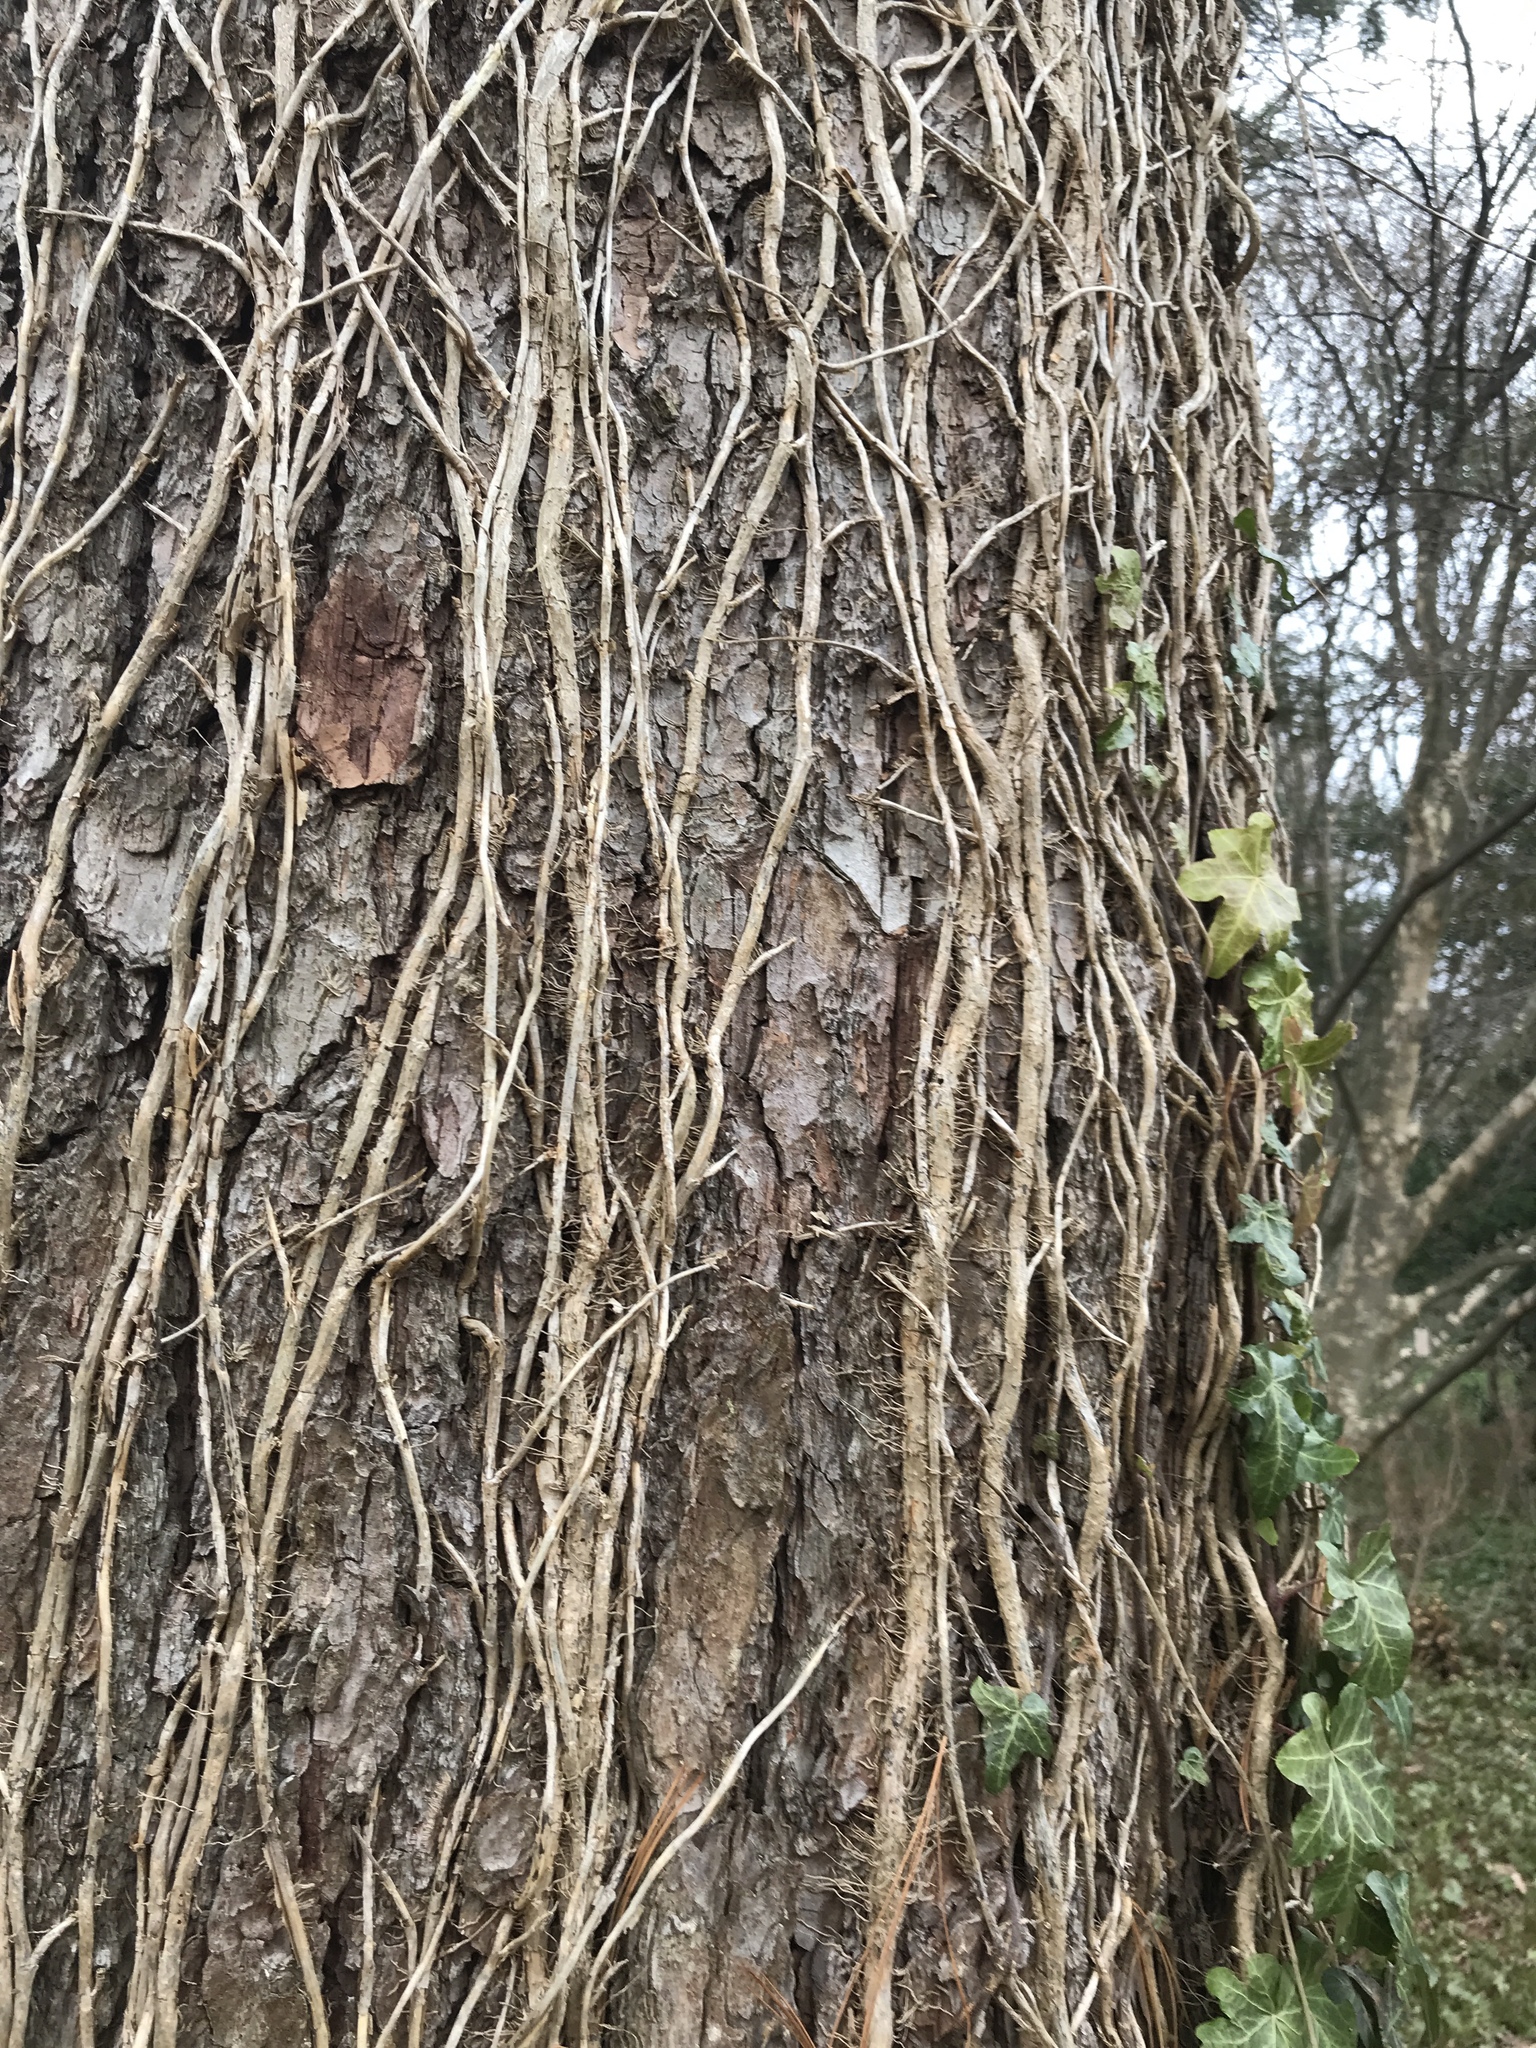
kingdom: Plantae
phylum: Tracheophyta
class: Magnoliopsida
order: Apiales
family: Araliaceae
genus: Hedera
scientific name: Hedera helix
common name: Ivy
